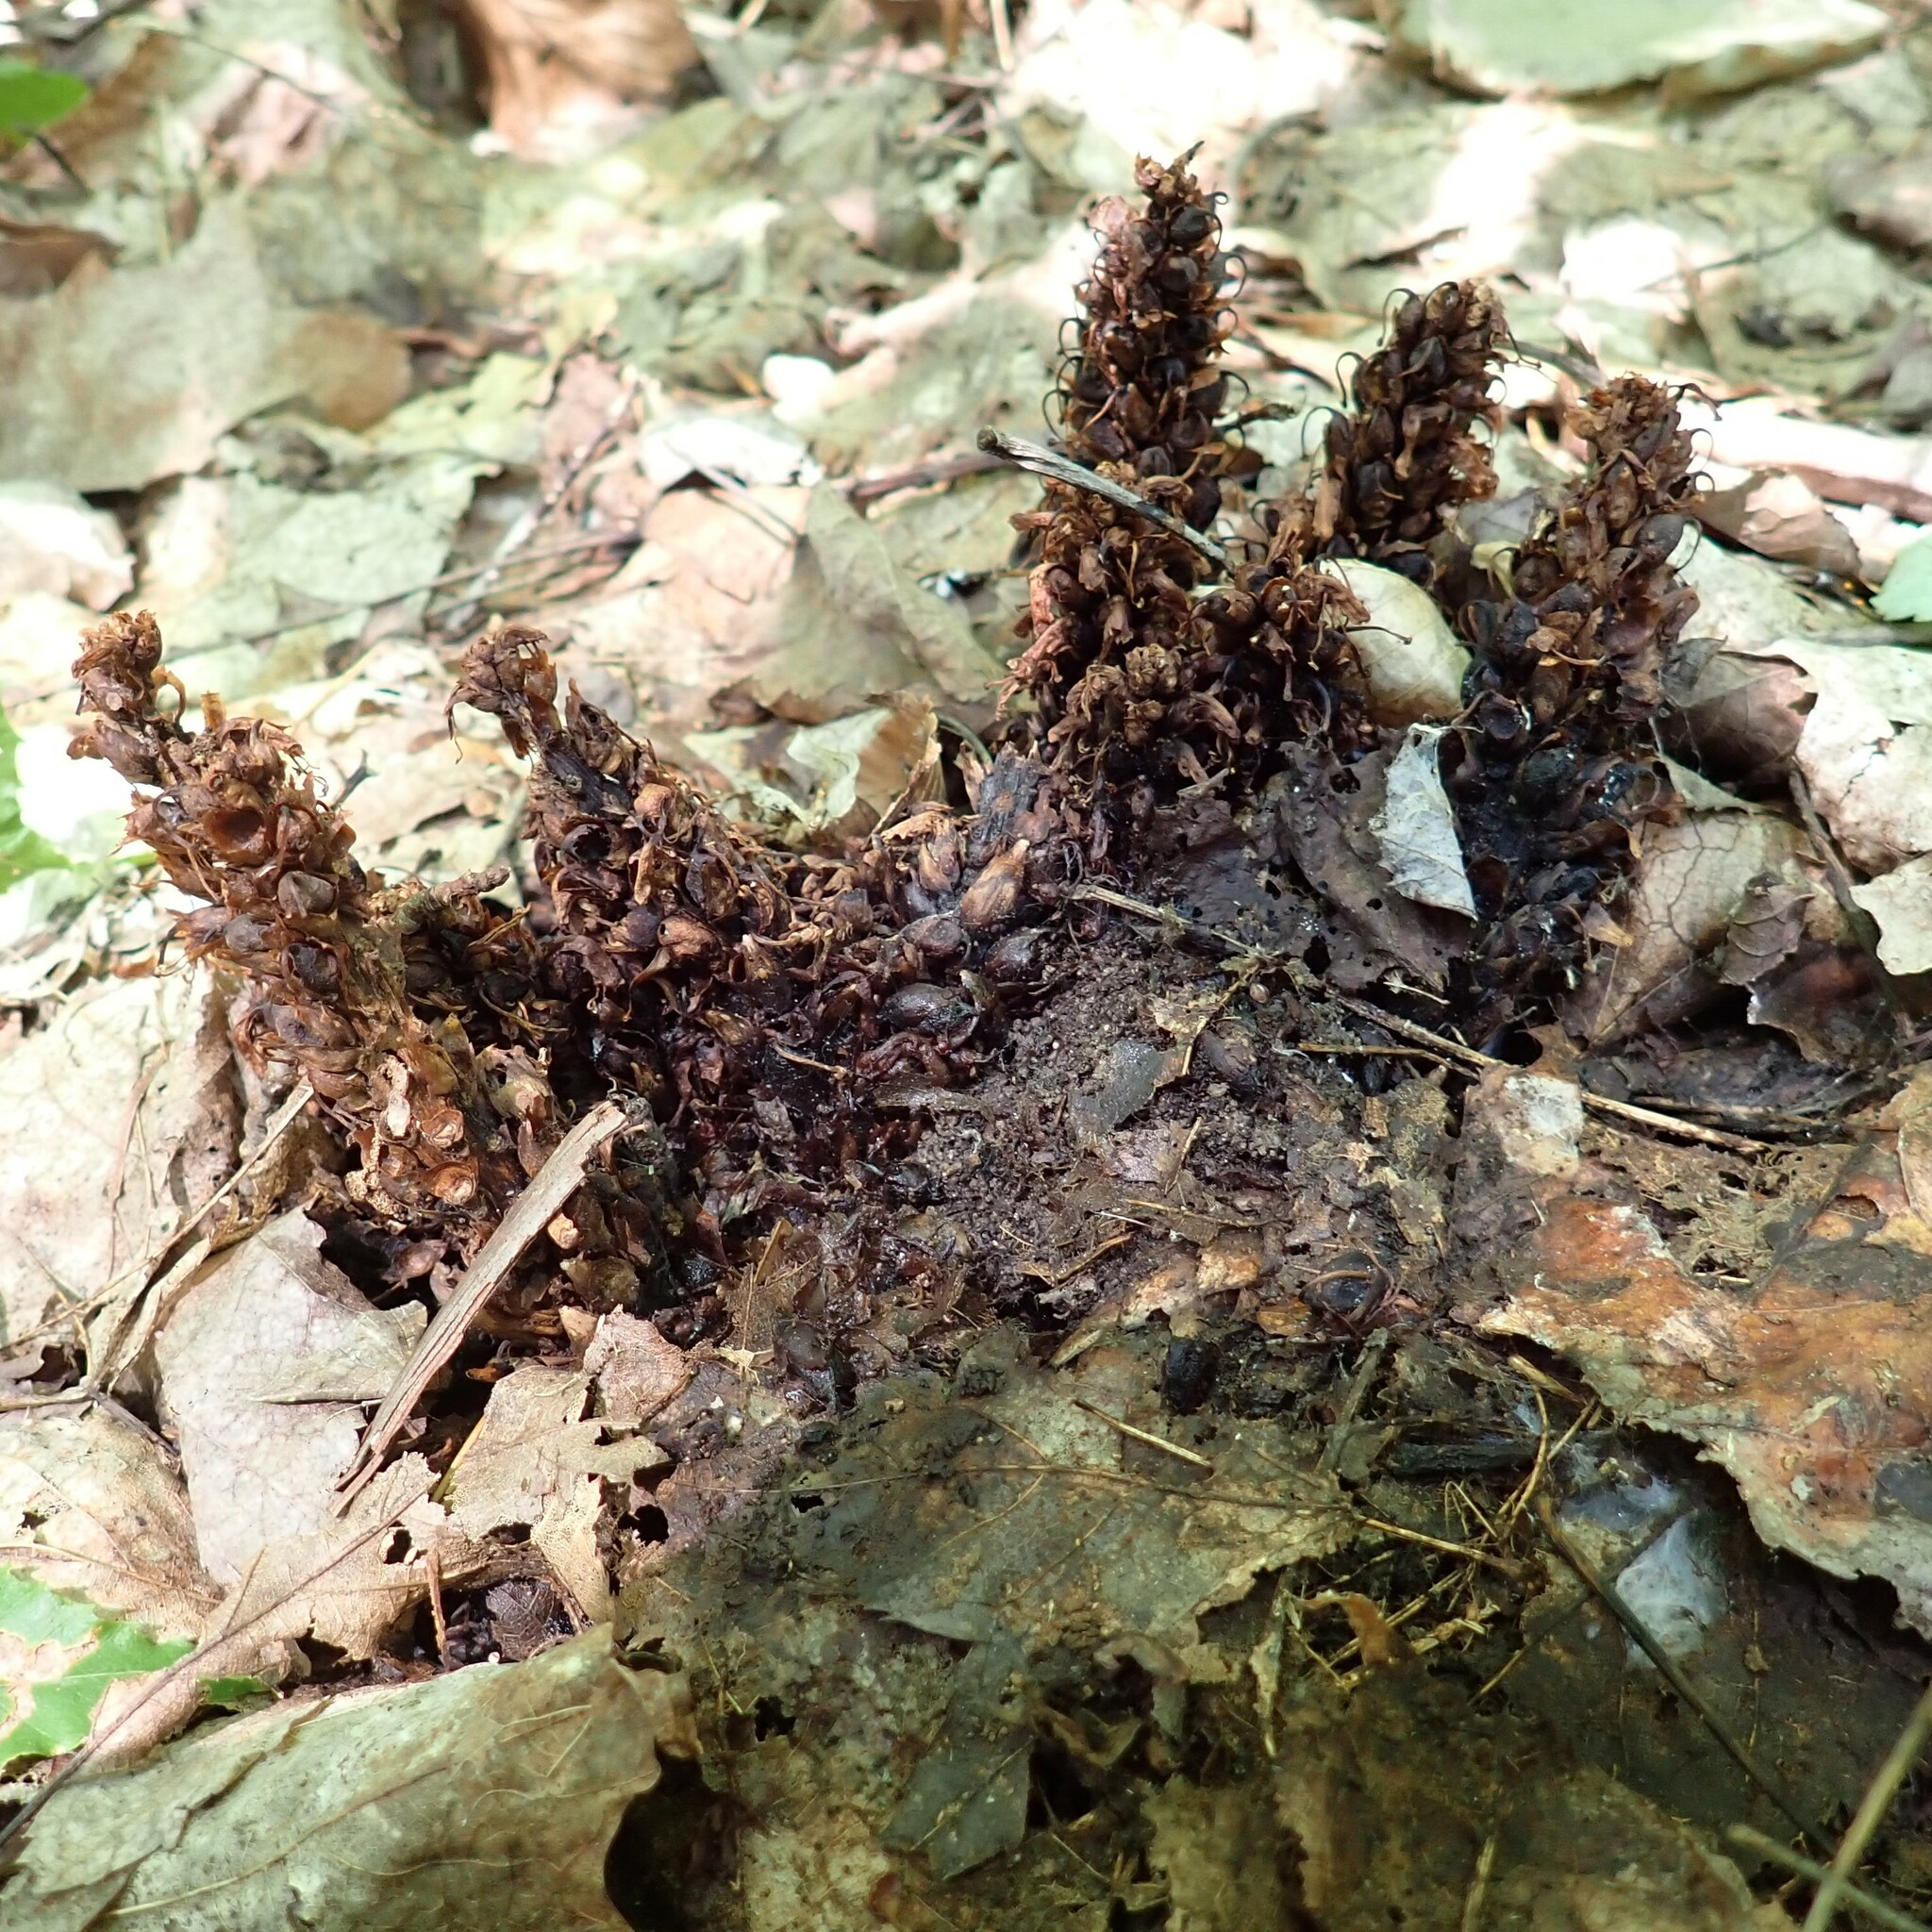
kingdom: Plantae
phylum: Tracheophyta
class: Magnoliopsida
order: Lamiales
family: Orobanchaceae
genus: Conopholis
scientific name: Conopholis americana
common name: American cancer-root
